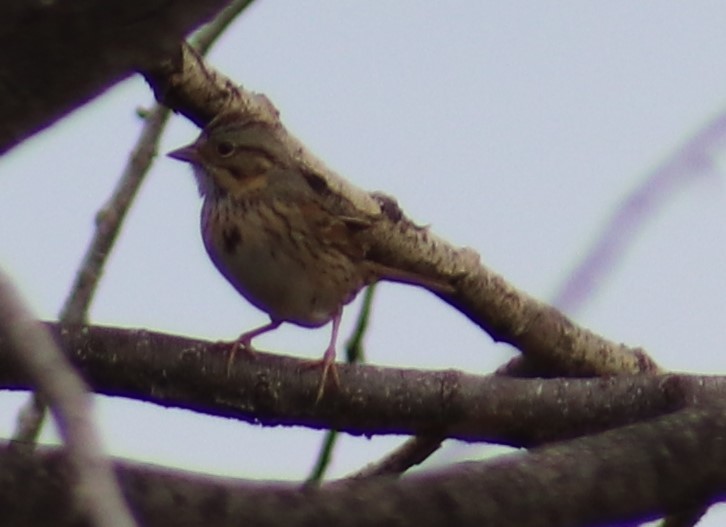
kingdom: Animalia
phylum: Chordata
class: Aves
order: Passeriformes
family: Passerellidae
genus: Melospiza
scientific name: Melospiza lincolnii
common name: Lincoln's sparrow
